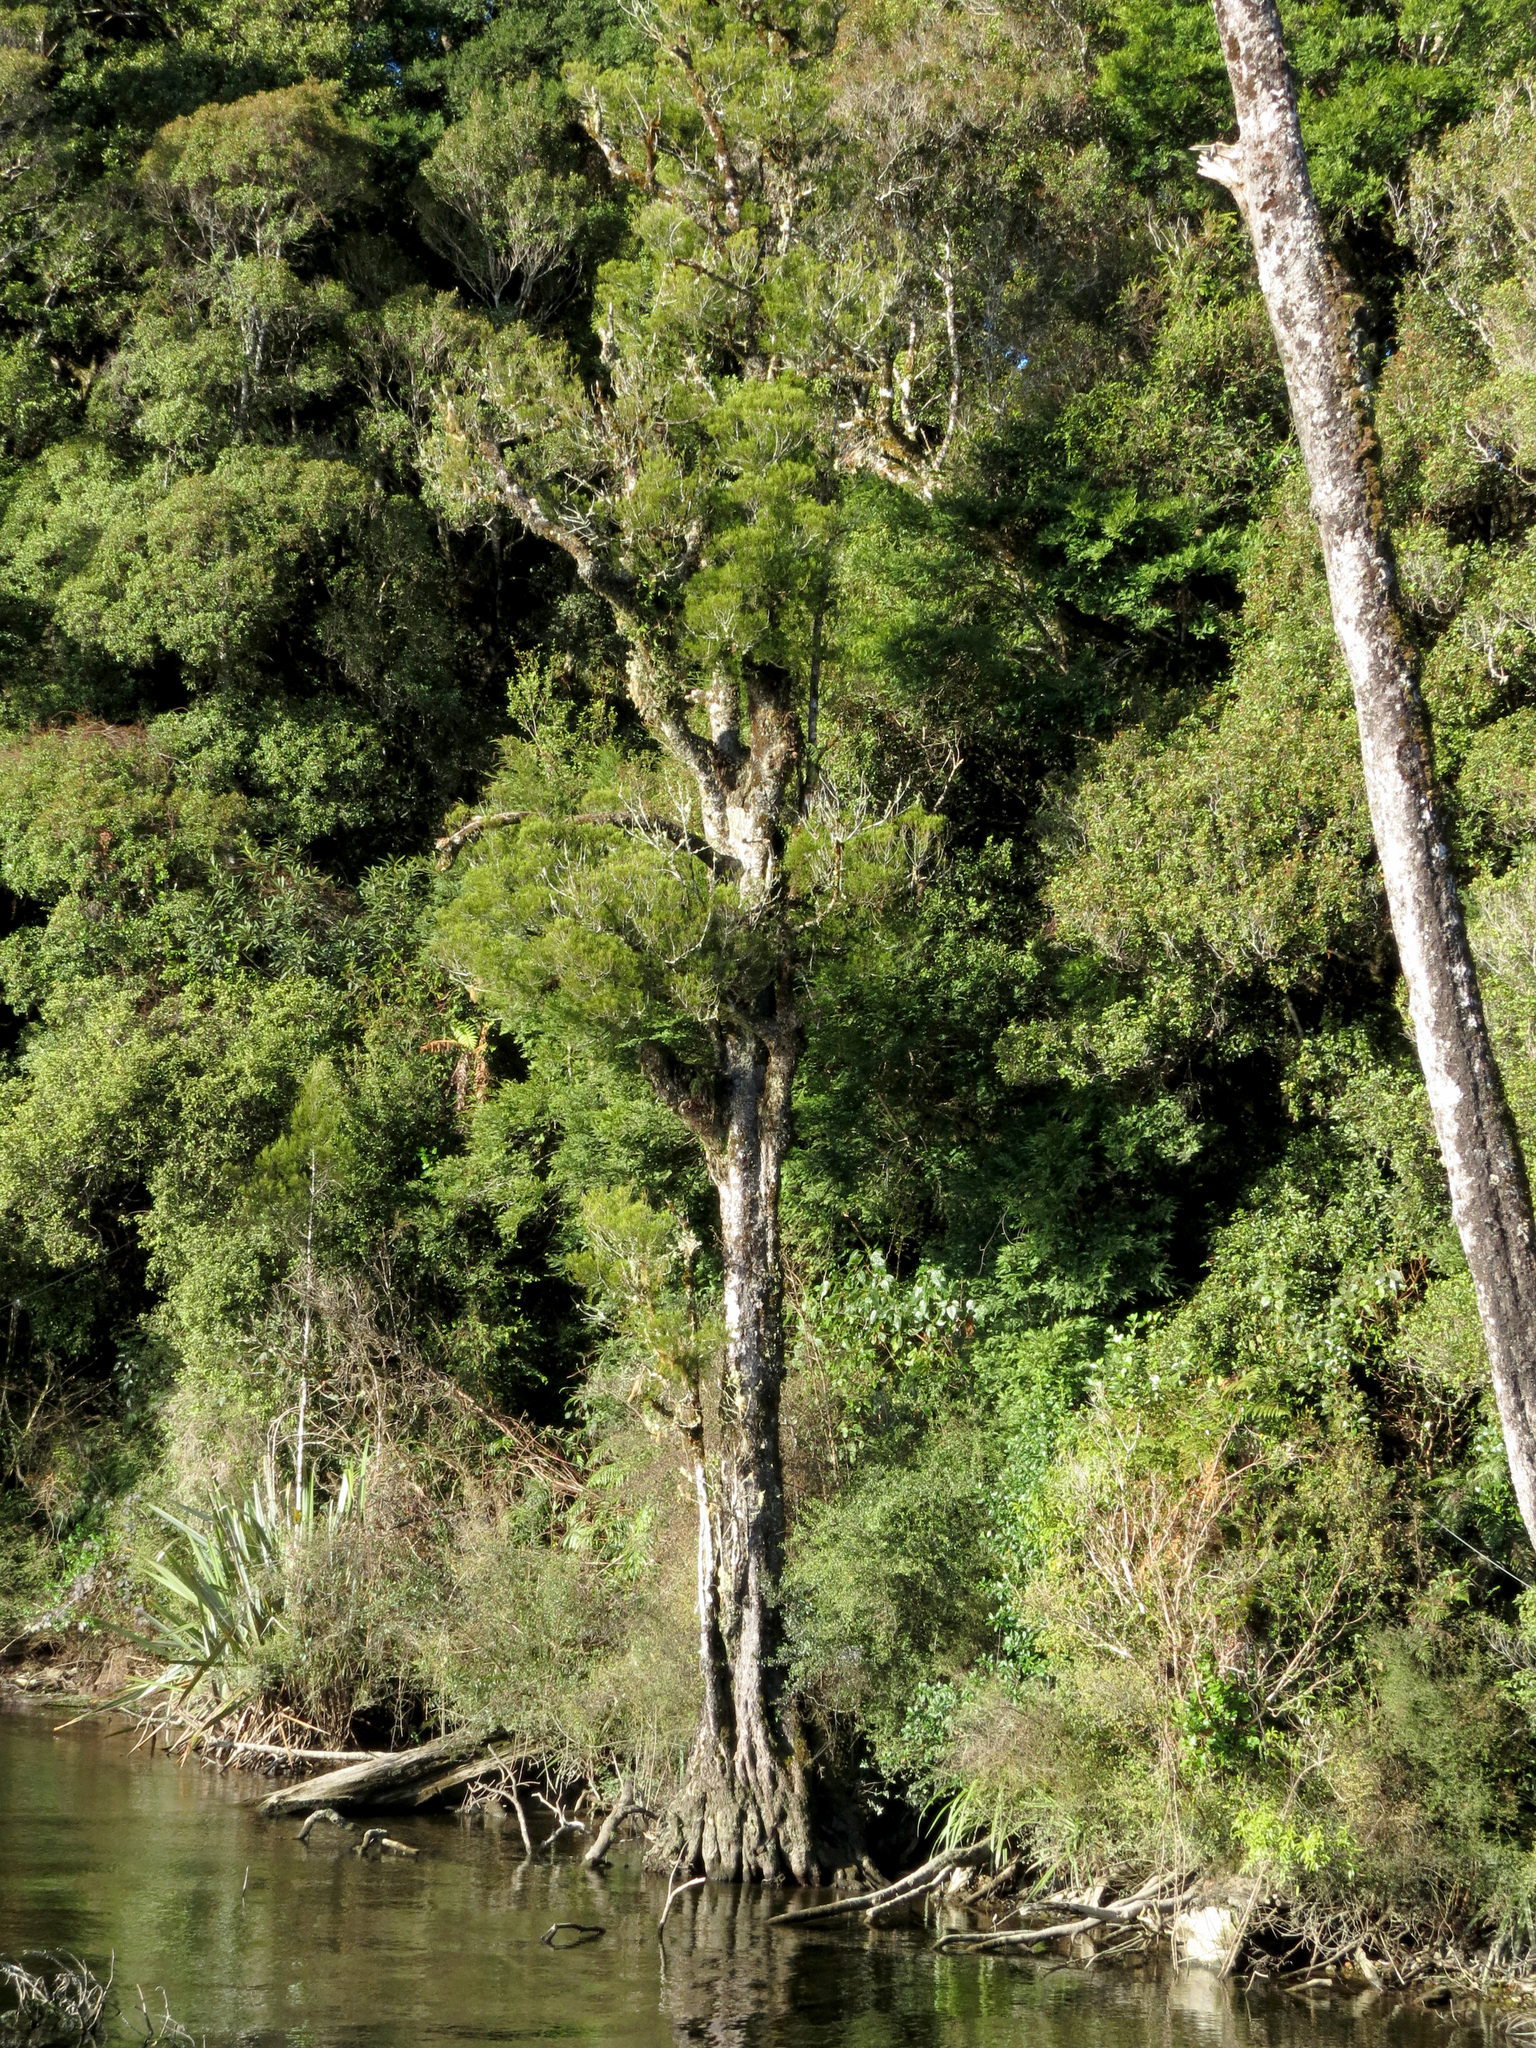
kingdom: Plantae
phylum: Tracheophyta
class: Pinopsida
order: Pinales
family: Podocarpaceae
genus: Dacrycarpus
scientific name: Dacrycarpus dacrydioides
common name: White pine
